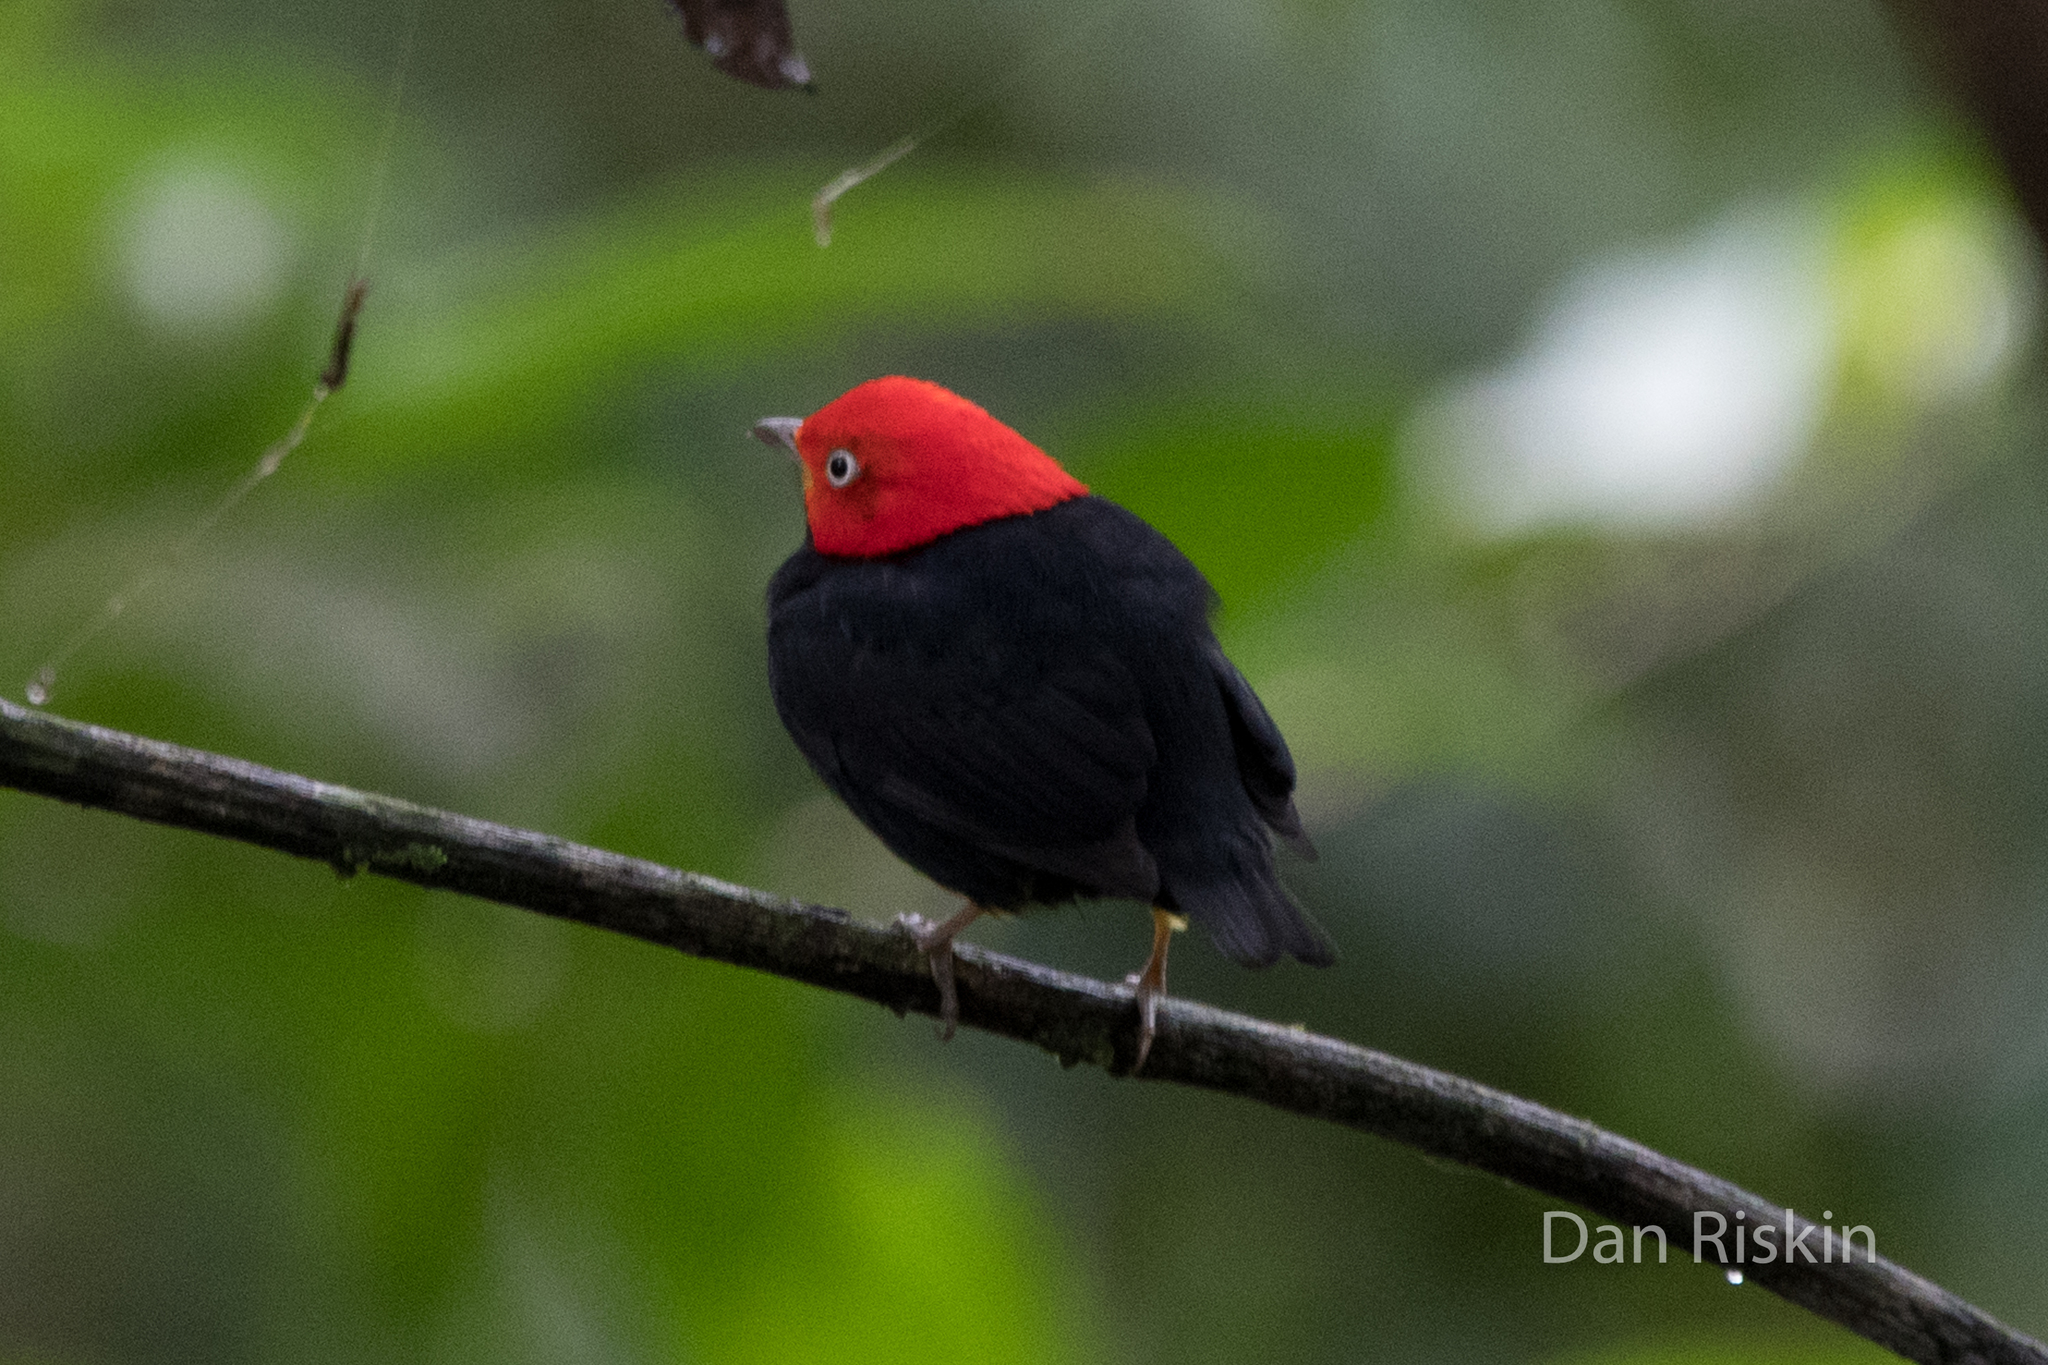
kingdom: Animalia
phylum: Chordata
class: Aves
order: Passeriformes
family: Pipridae
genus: Pipra
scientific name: Pipra mentalis
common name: Red-capped manakin
